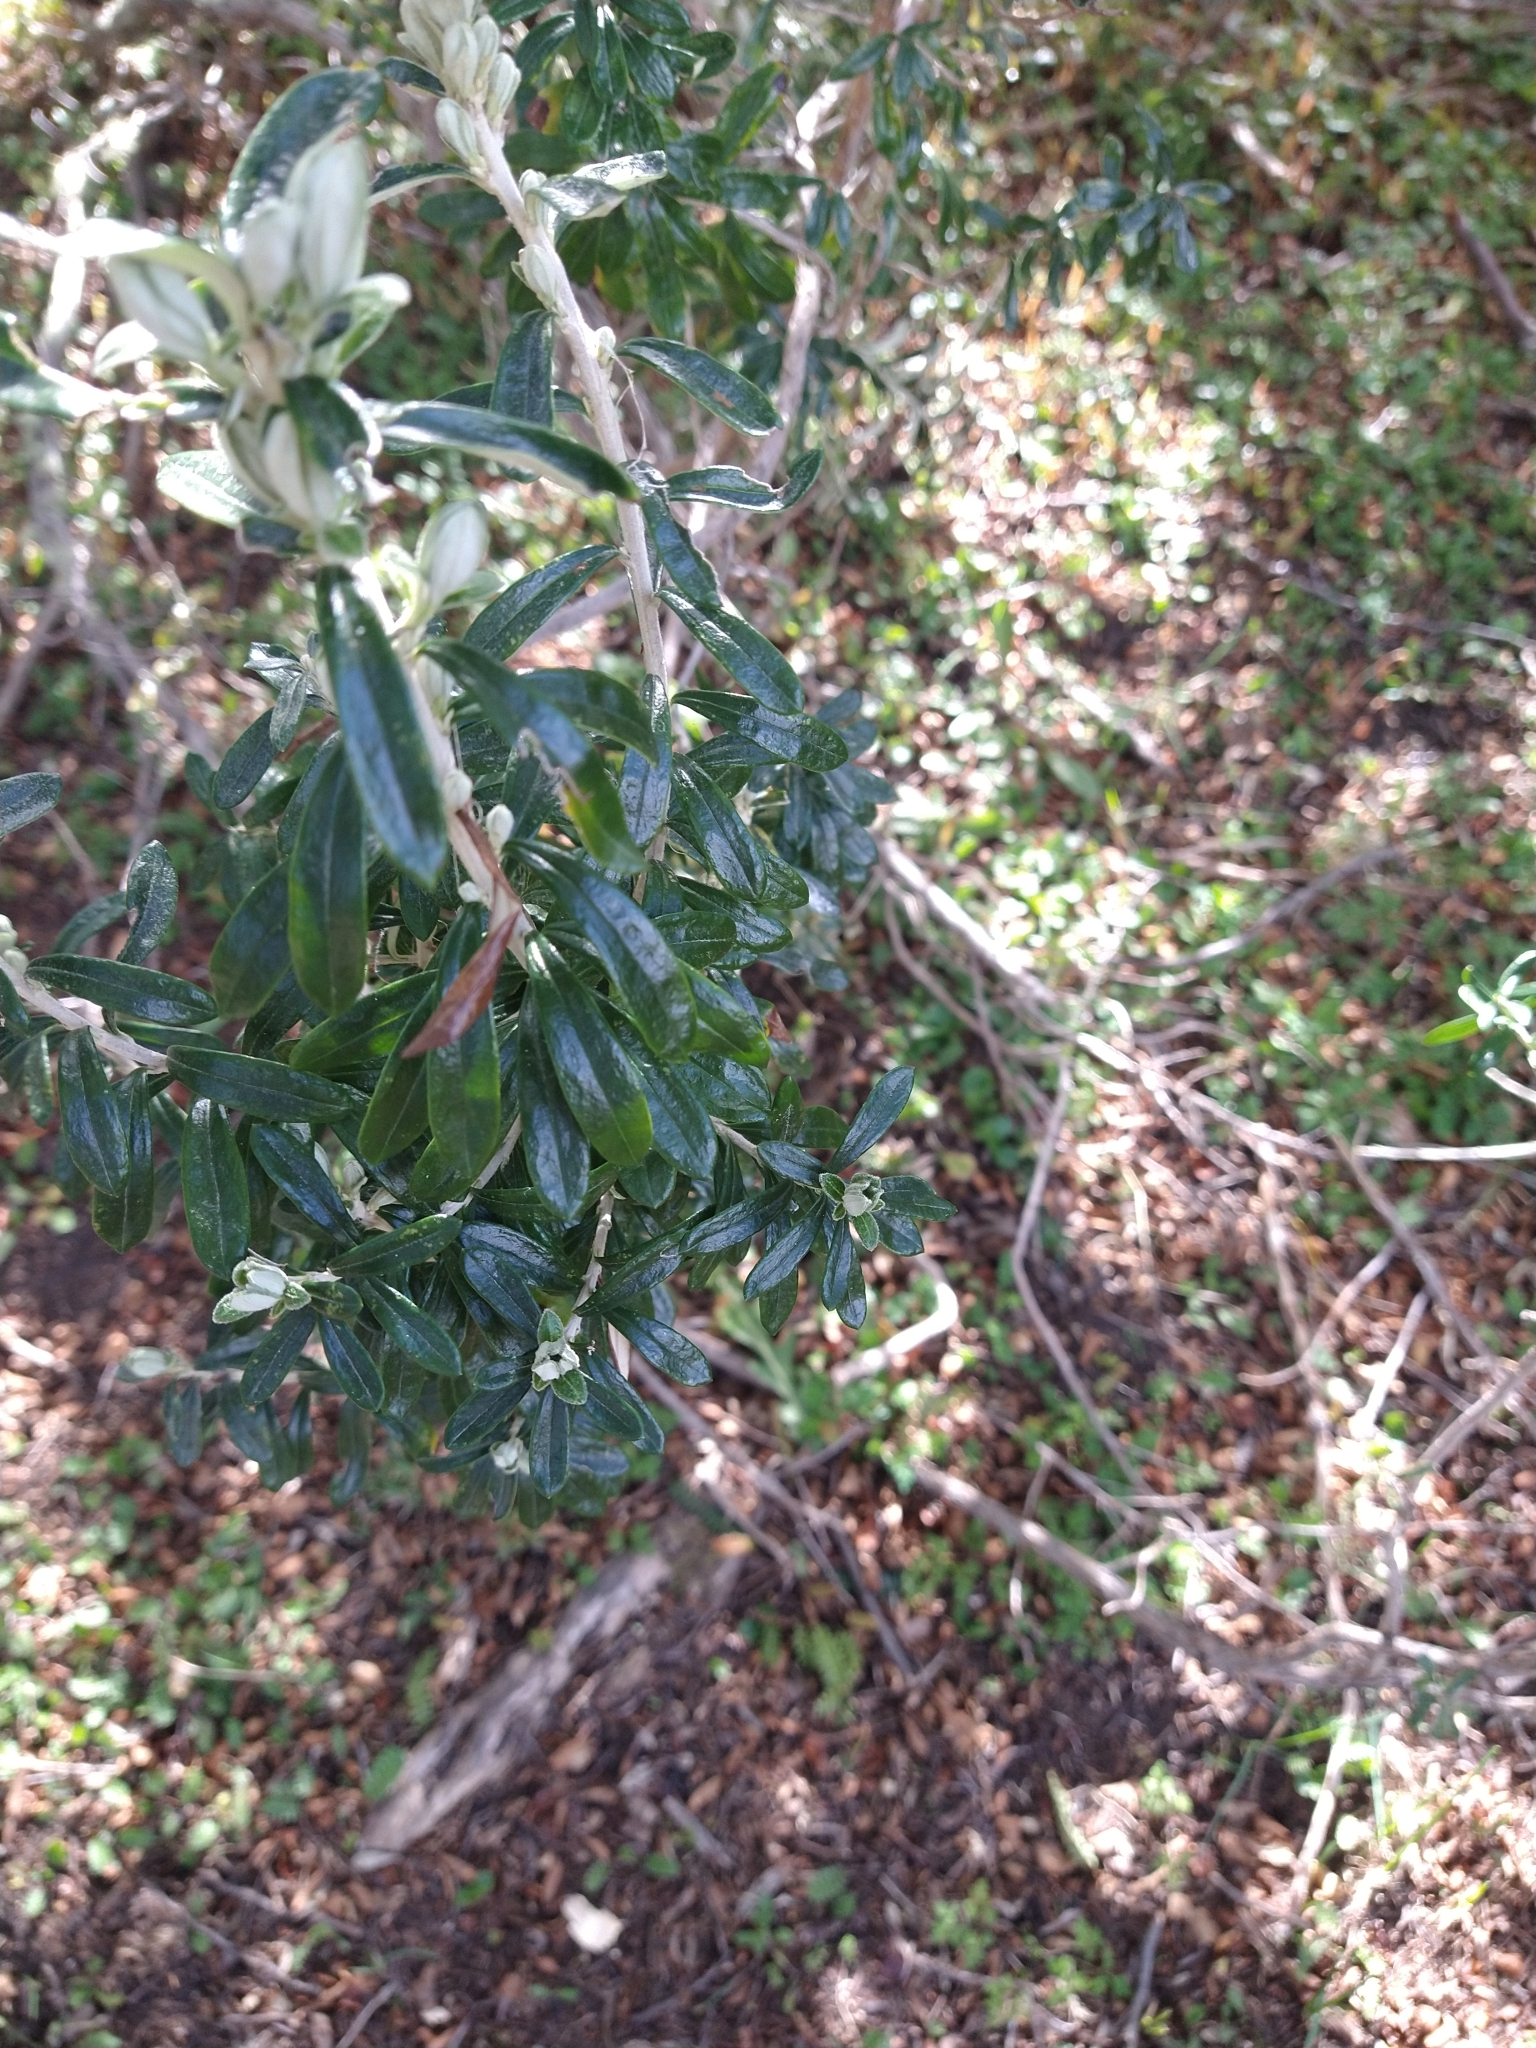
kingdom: Plantae
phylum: Tracheophyta
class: Magnoliopsida
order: Asterales
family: Asteraceae
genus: Chiliotrichum
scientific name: Chiliotrichum diffusum
